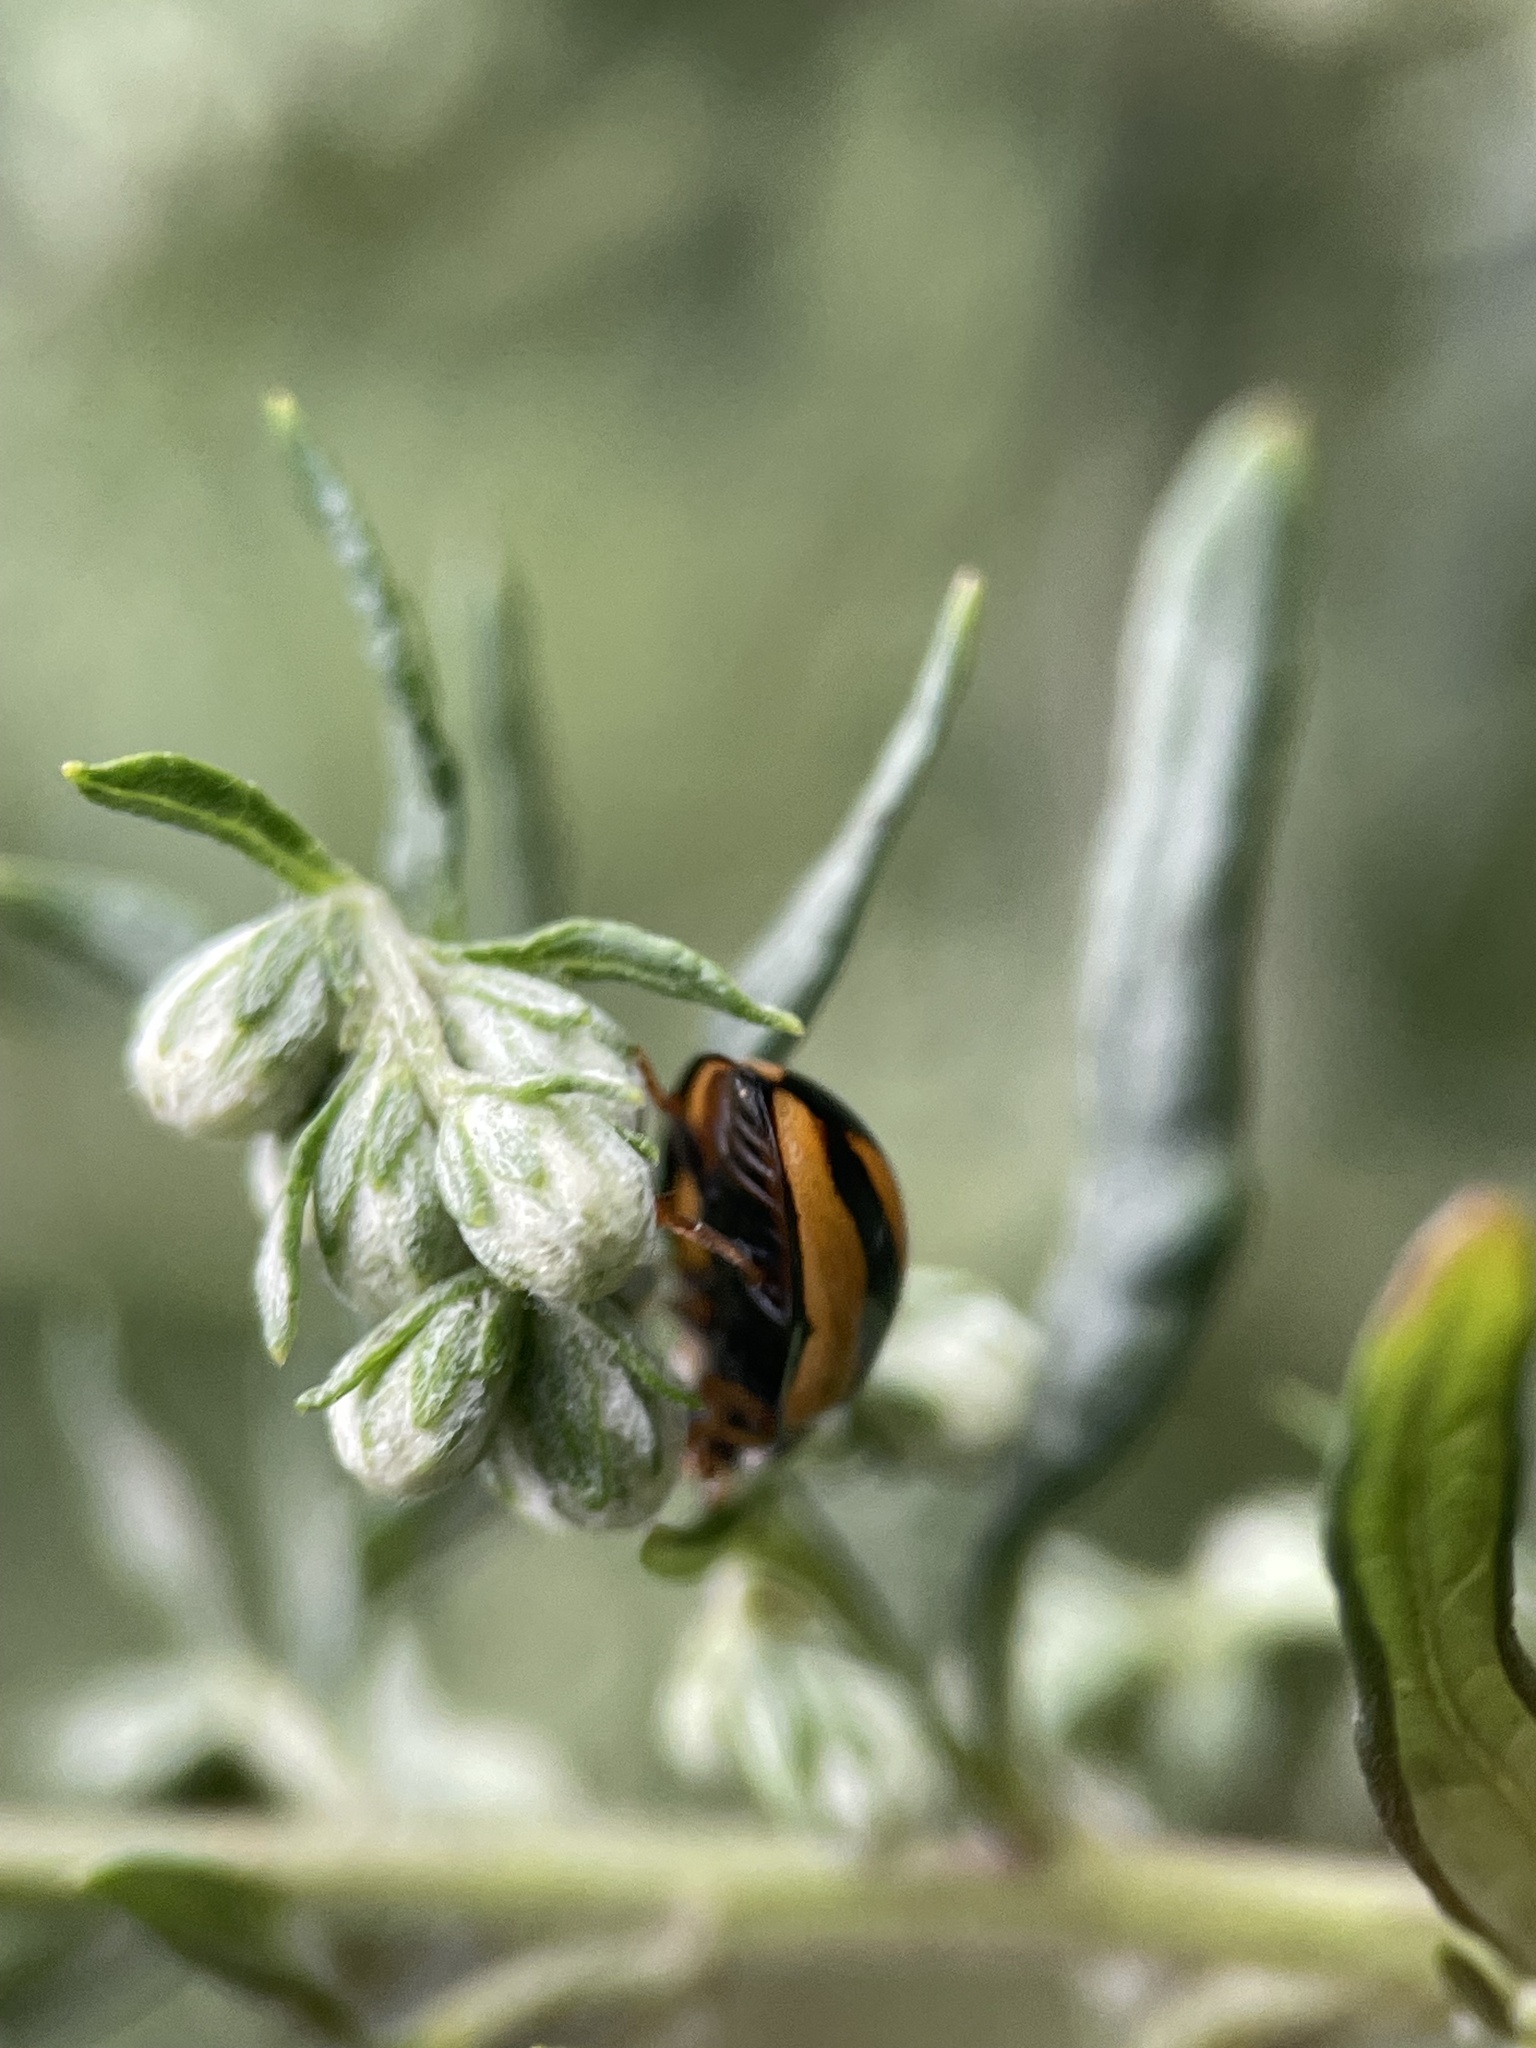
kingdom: Animalia
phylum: Arthropoda
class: Insecta
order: Coleoptera
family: Coccinellidae
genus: Coelophora
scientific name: Coelophora inaequalis
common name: Common australian lady beetle
